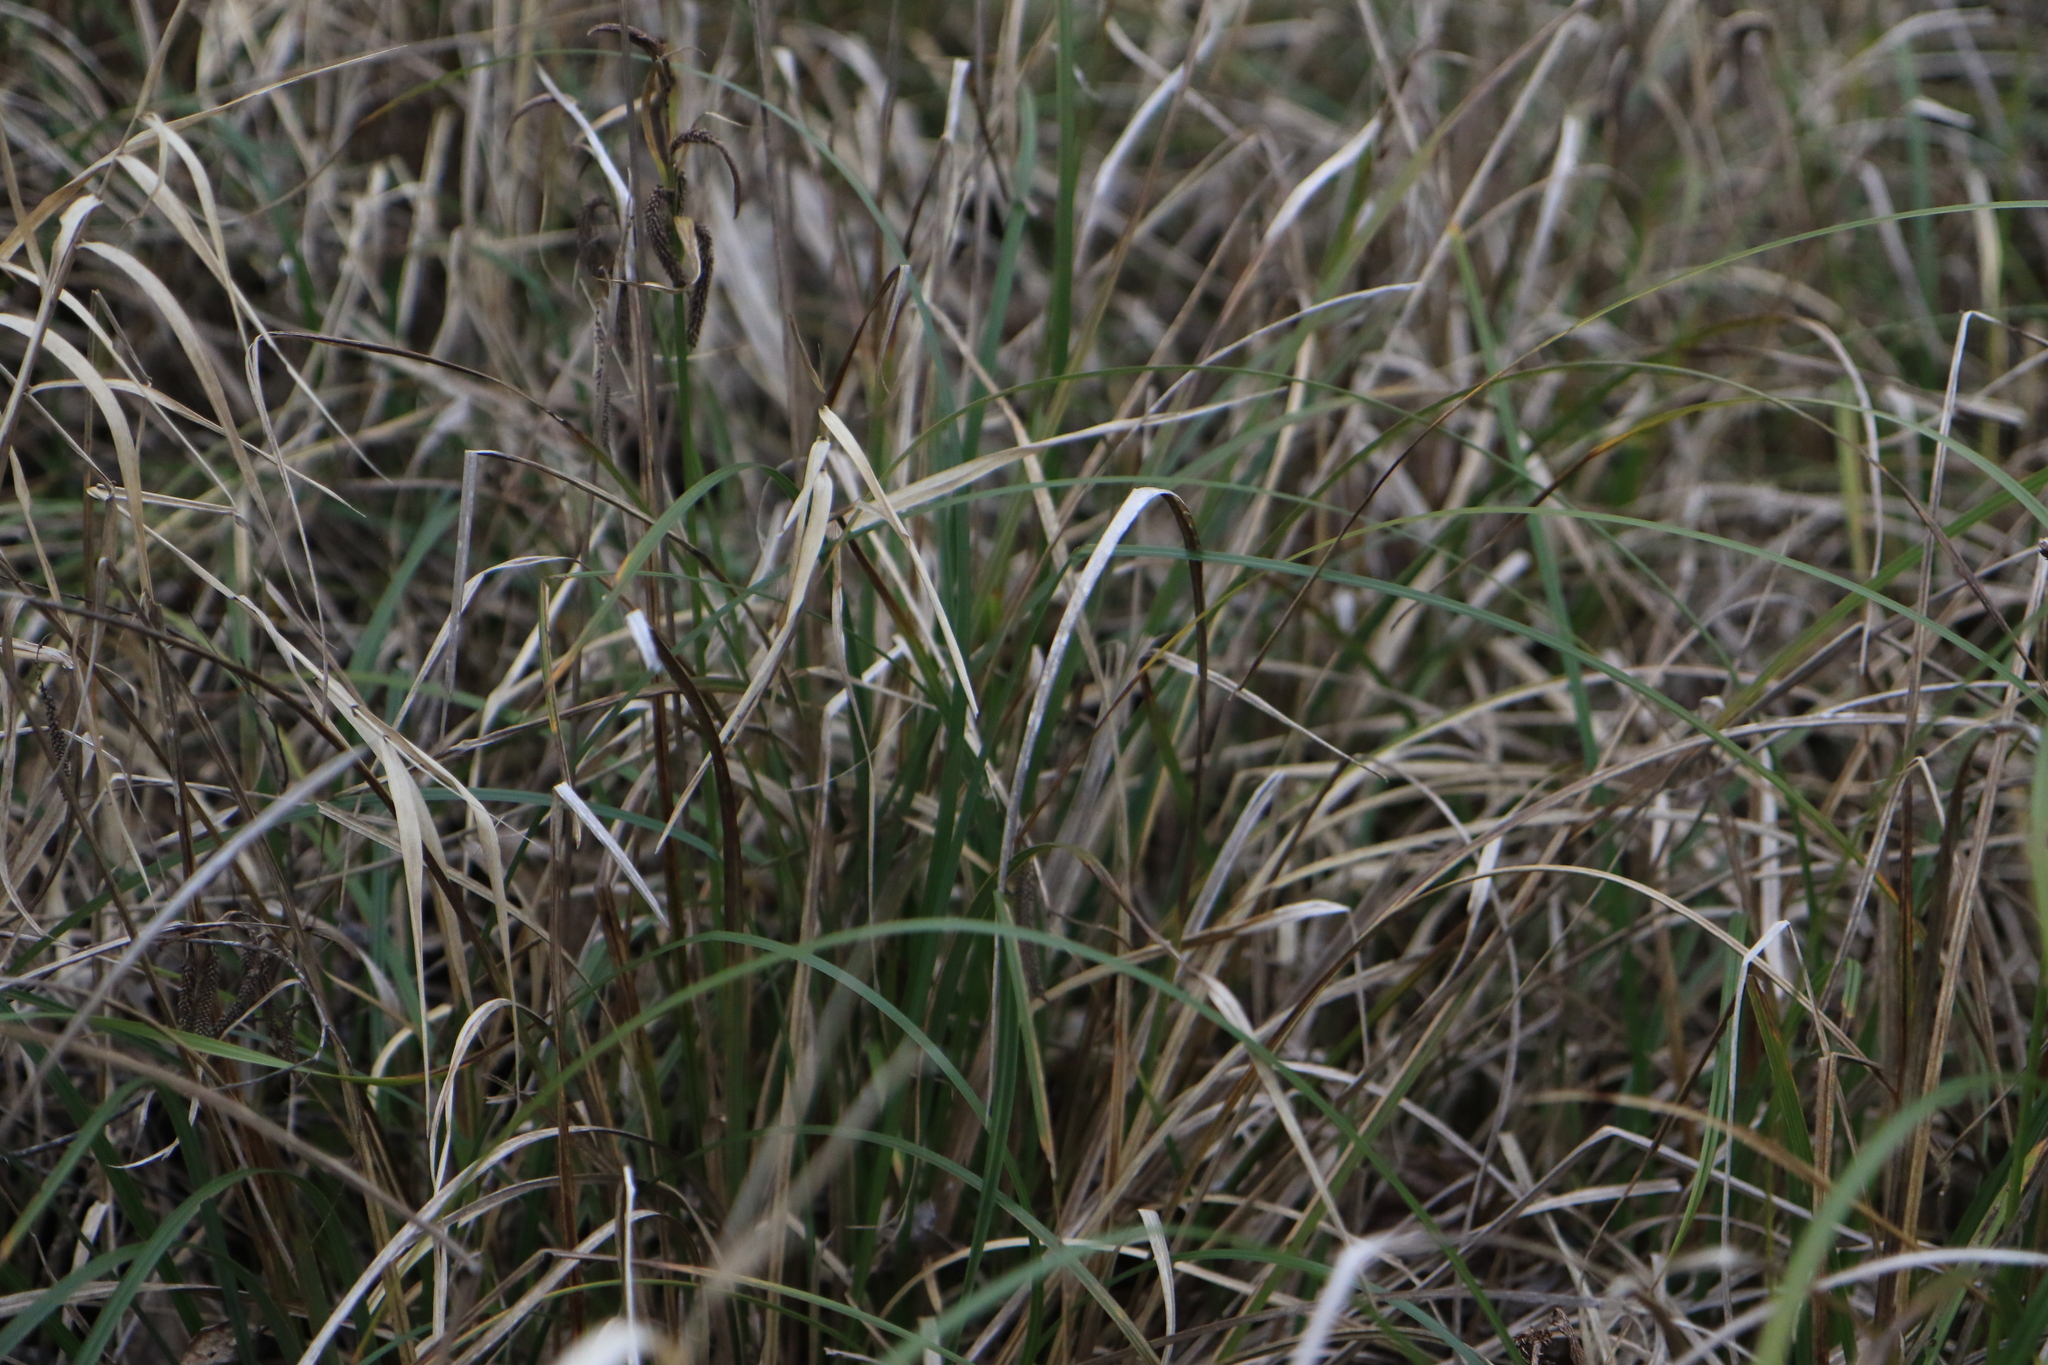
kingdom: Plantae
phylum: Tracheophyta
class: Liliopsida
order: Poales
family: Cyperaceae
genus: Carex
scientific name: Carex obnupta
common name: Slough sedge
